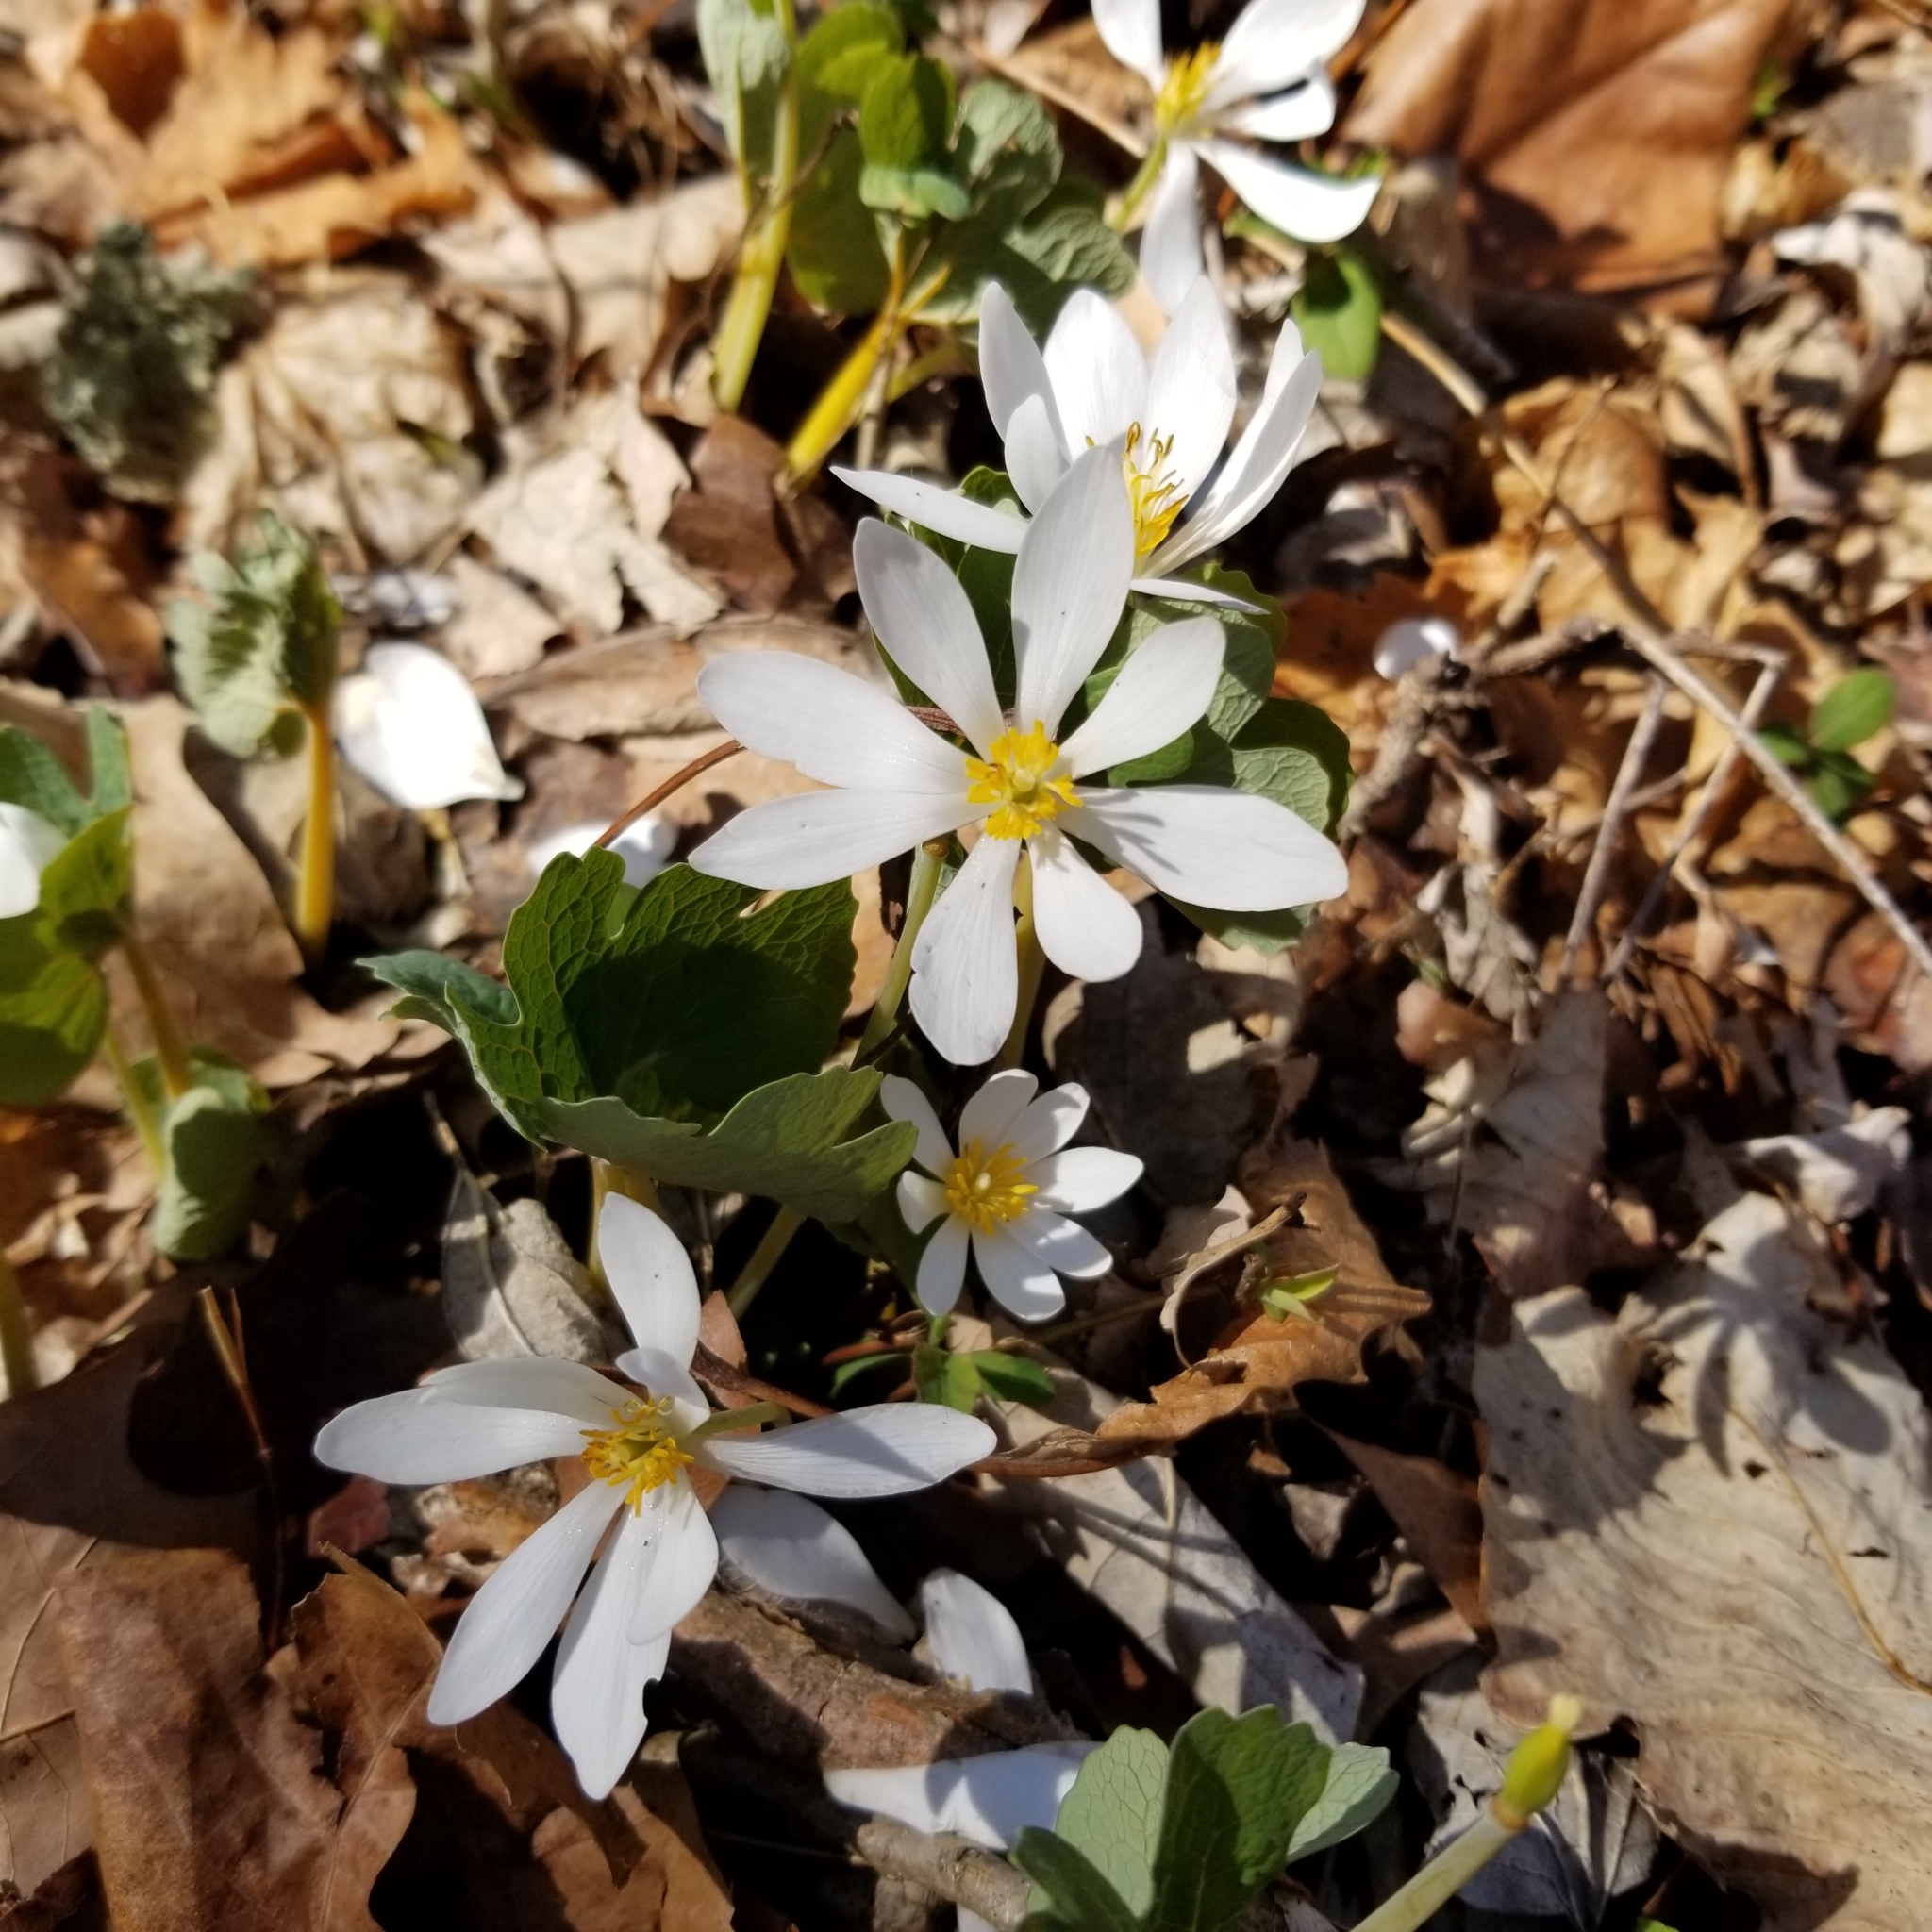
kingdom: Plantae
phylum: Tracheophyta
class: Magnoliopsida
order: Ranunculales
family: Papaveraceae
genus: Sanguinaria
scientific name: Sanguinaria canadensis
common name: Bloodroot
